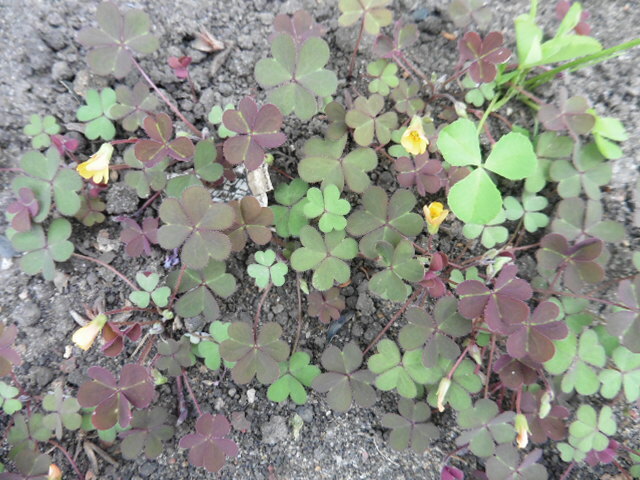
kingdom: Plantae
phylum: Tracheophyta
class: Magnoliopsida
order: Oxalidales
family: Oxalidaceae
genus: Oxalis
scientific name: Oxalis corniculata
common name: Procumbent yellow-sorrel
